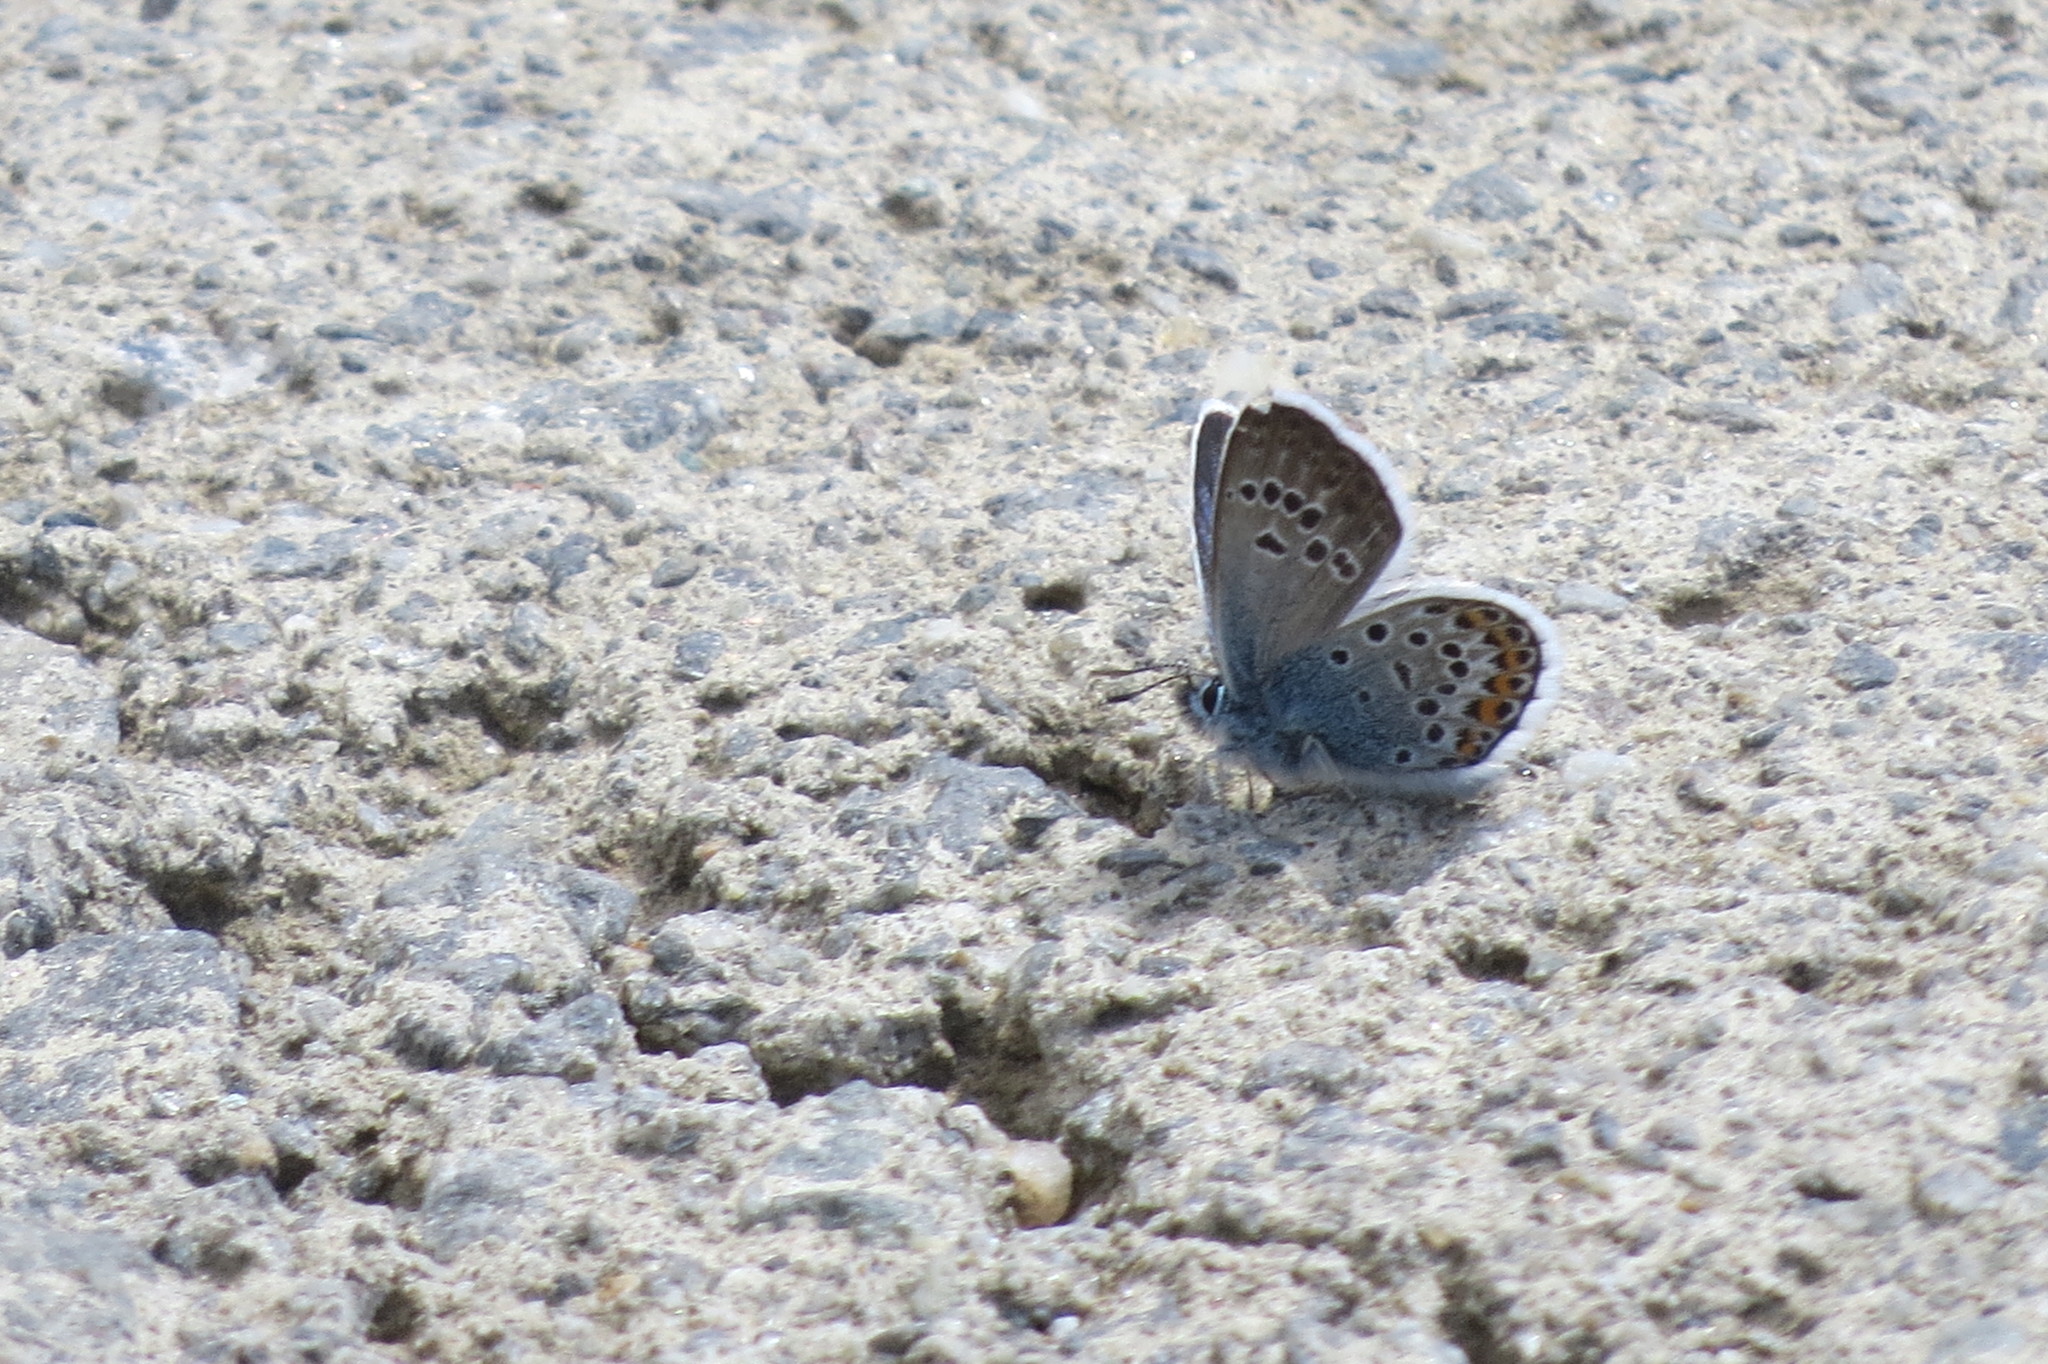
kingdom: Animalia
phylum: Arthropoda
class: Insecta
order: Lepidoptera
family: Lycaenidae
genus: Plebejus
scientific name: Plebejus argus
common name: Silver-studded blue
